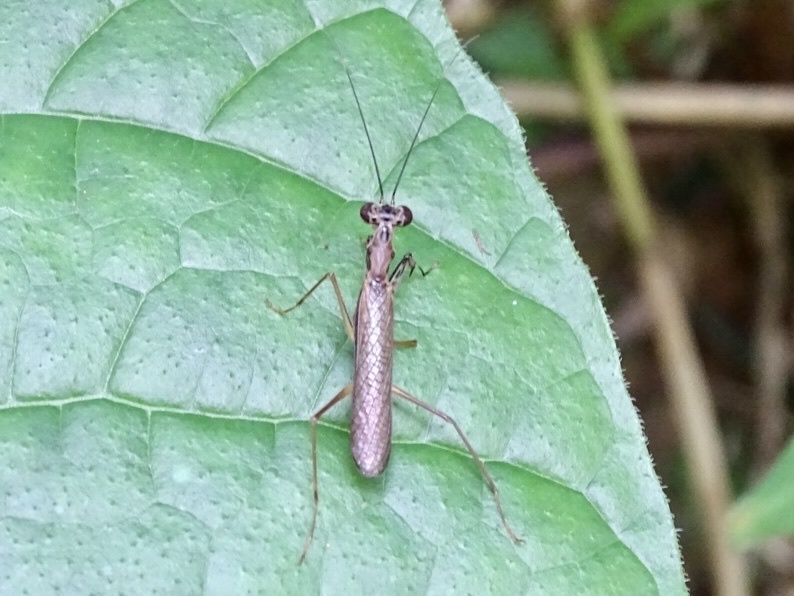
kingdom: Animalia
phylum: Arthropoda
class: Insecta
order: Mantodea
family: Gonypetidae
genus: Spilomantis
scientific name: Spilomantis occipitalis
